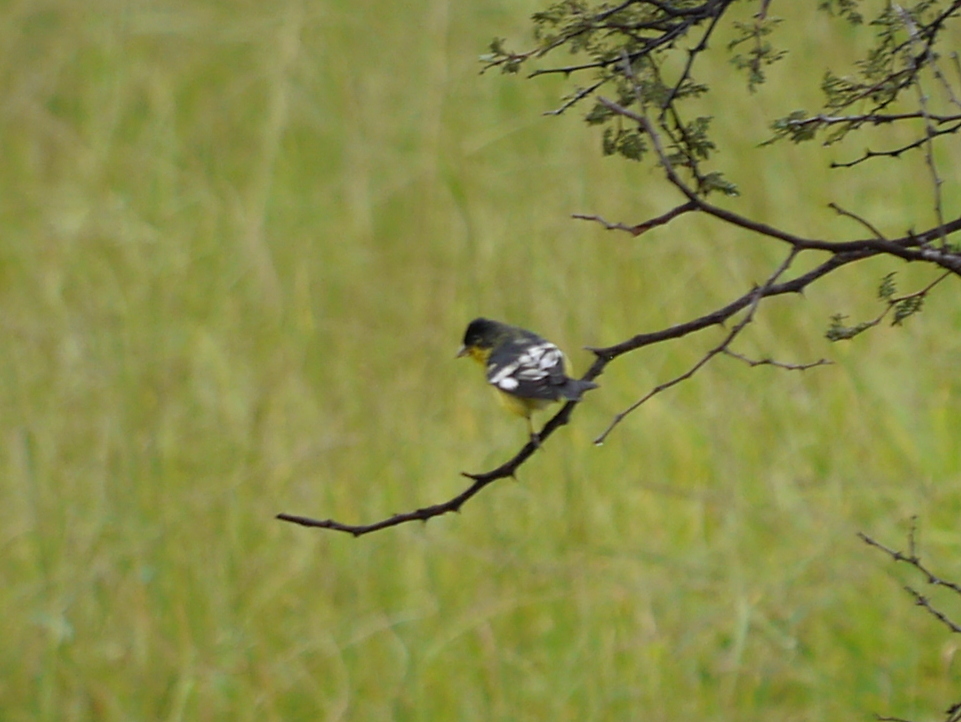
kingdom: Animalia
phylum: Chordata
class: Aves
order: Passeriformes
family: Fringillidae
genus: Spinus
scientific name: Spinus psaltria
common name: Lesser goldfinch
